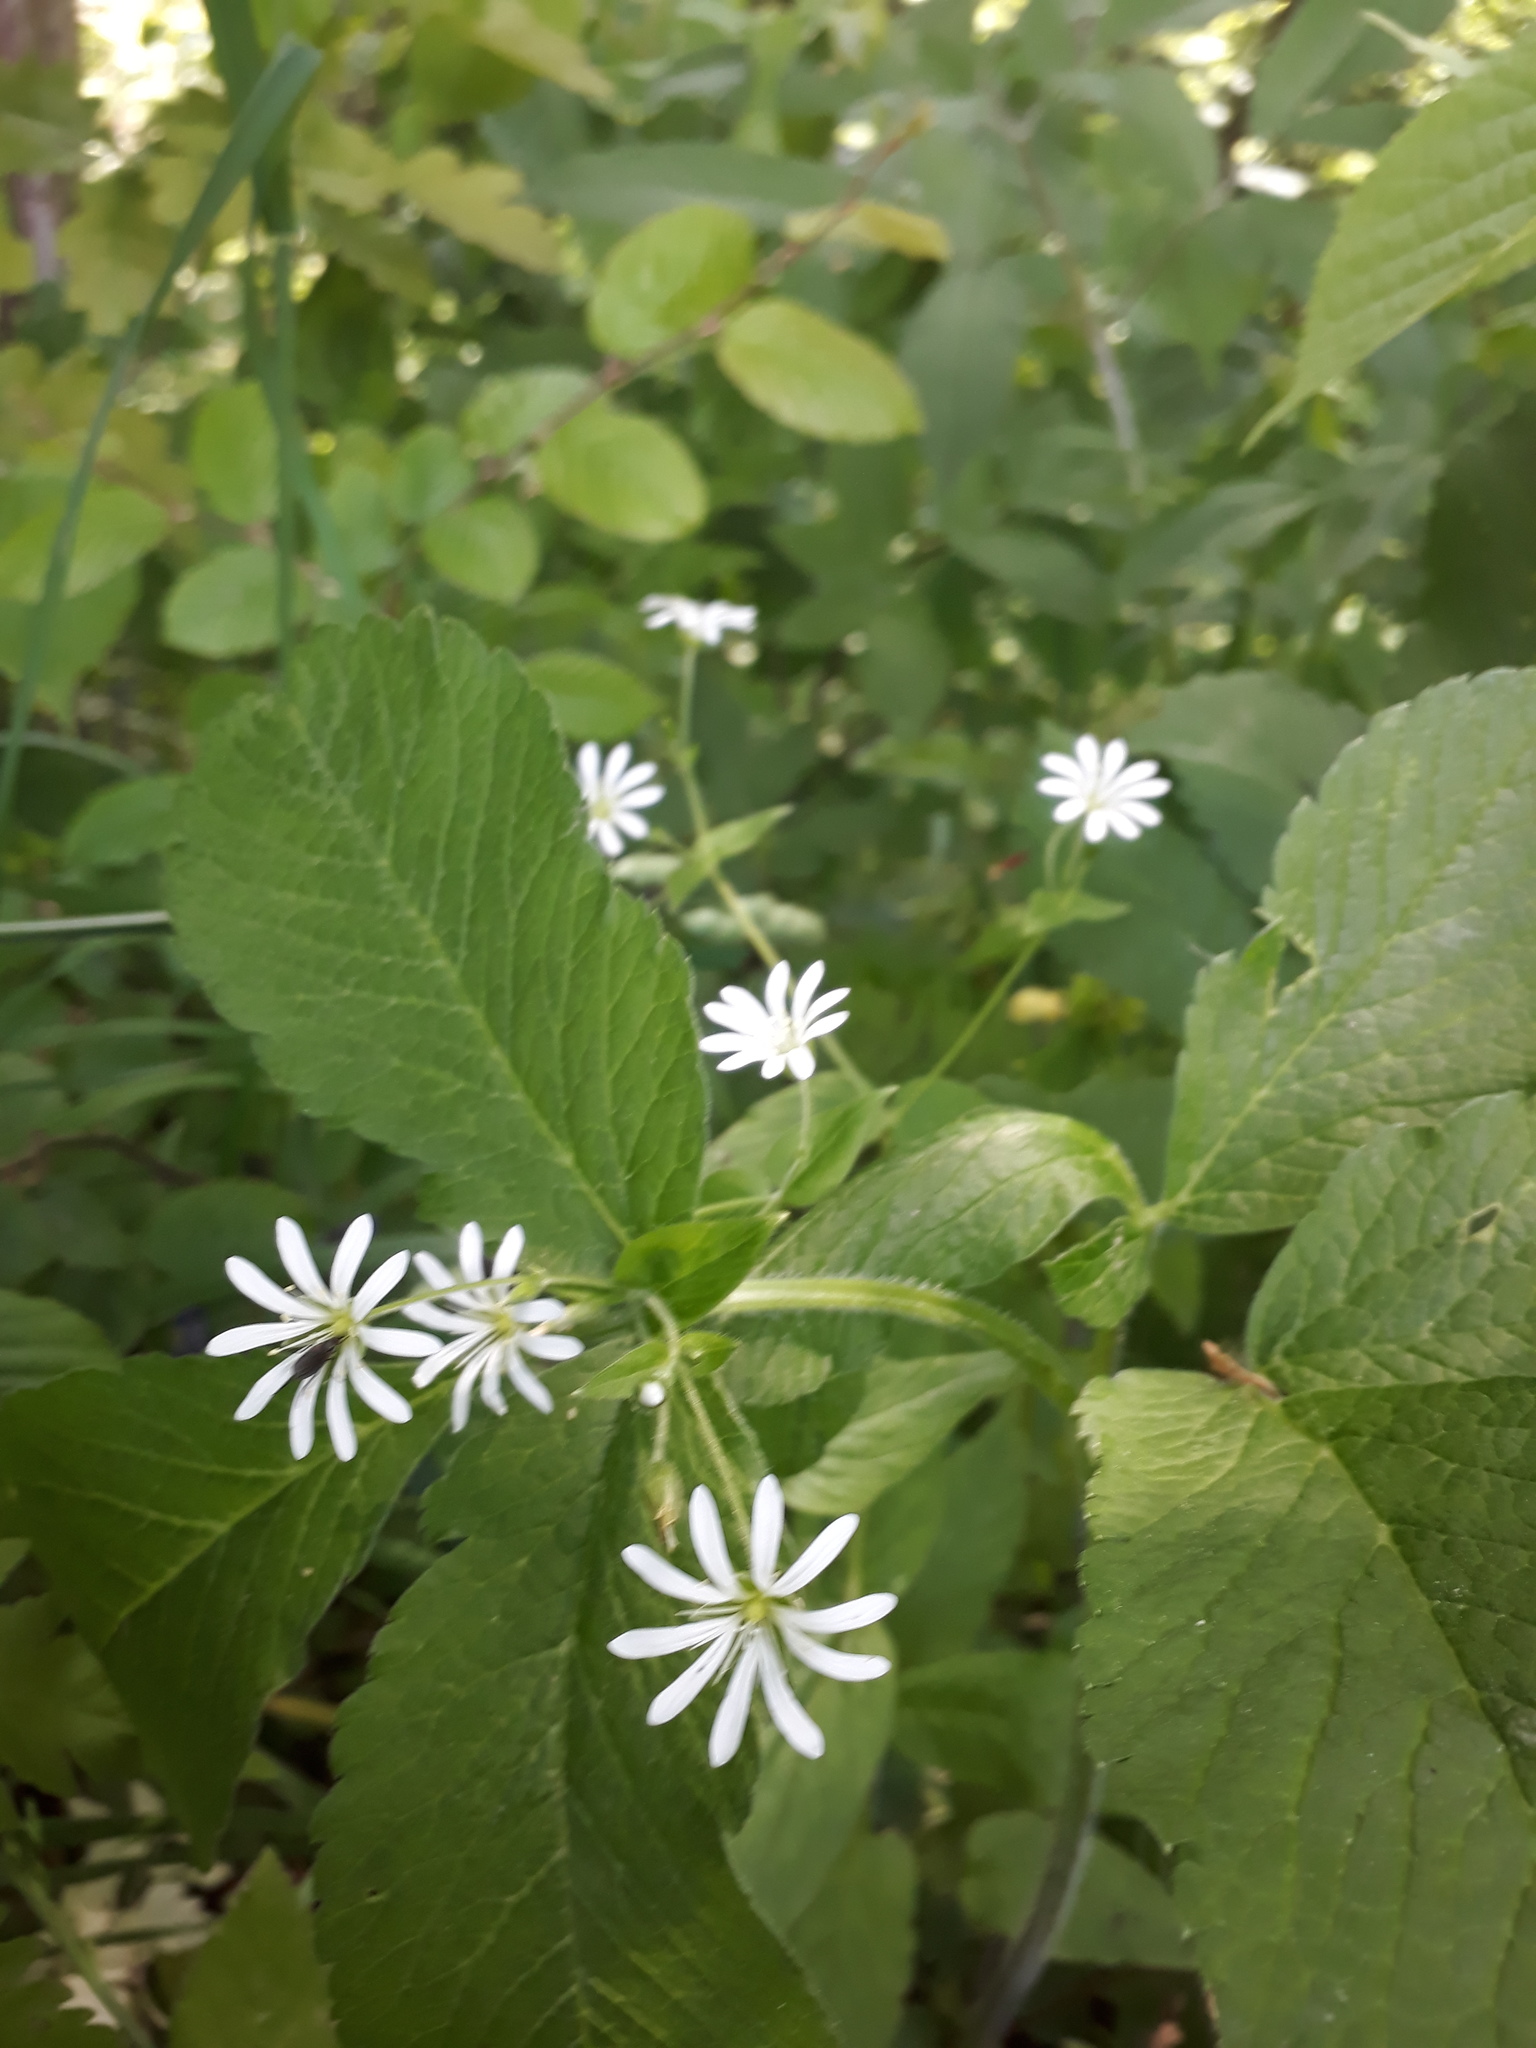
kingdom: Plantae
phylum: Tracheophyta
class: Magnoliopsida
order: Caryophyllales
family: Caryophyllaceae
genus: Stellaria
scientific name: Stellaria nemorum
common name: Wood stitchwort
